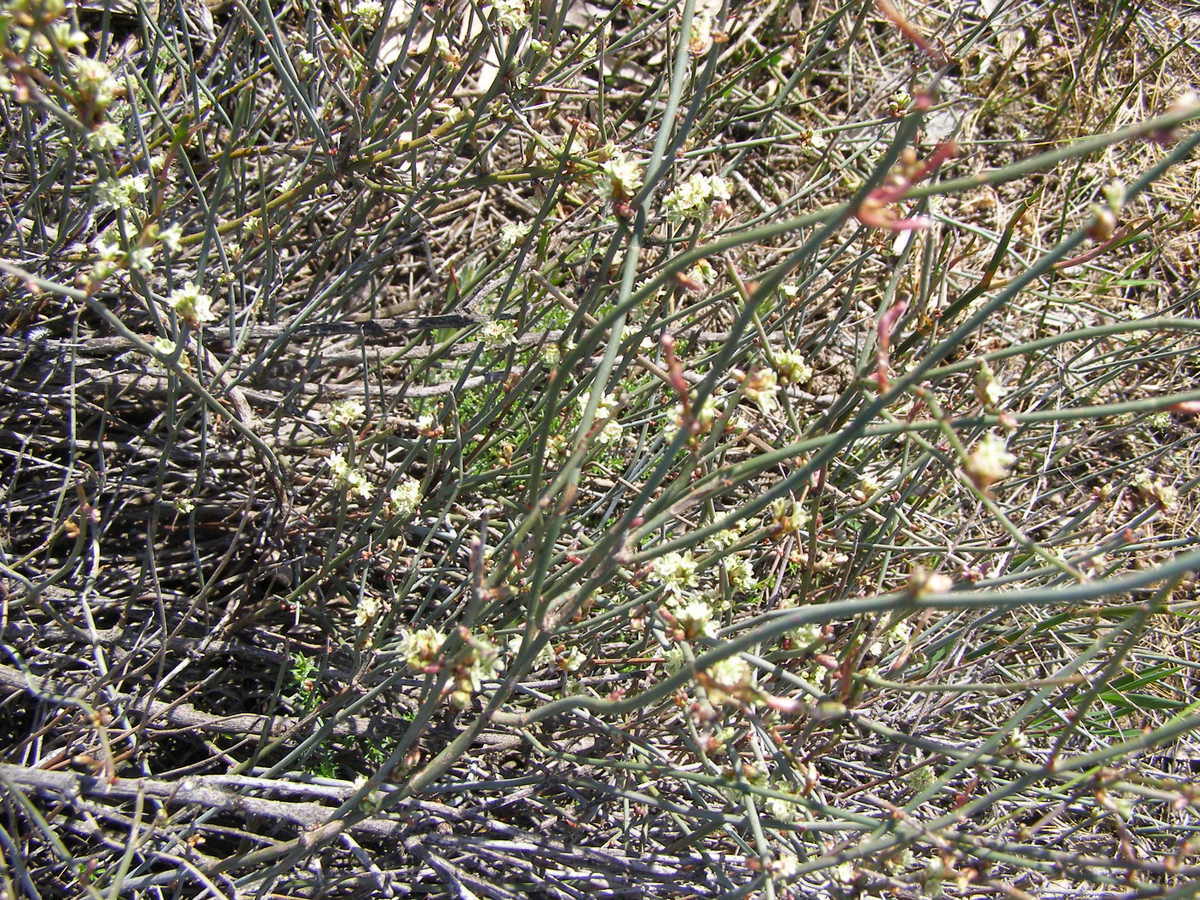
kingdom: Plantae
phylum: Tracheophyta
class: Magnoliopsida
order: Caryophyllales
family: Polygonaceae
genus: Duma
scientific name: Duma florulenta
